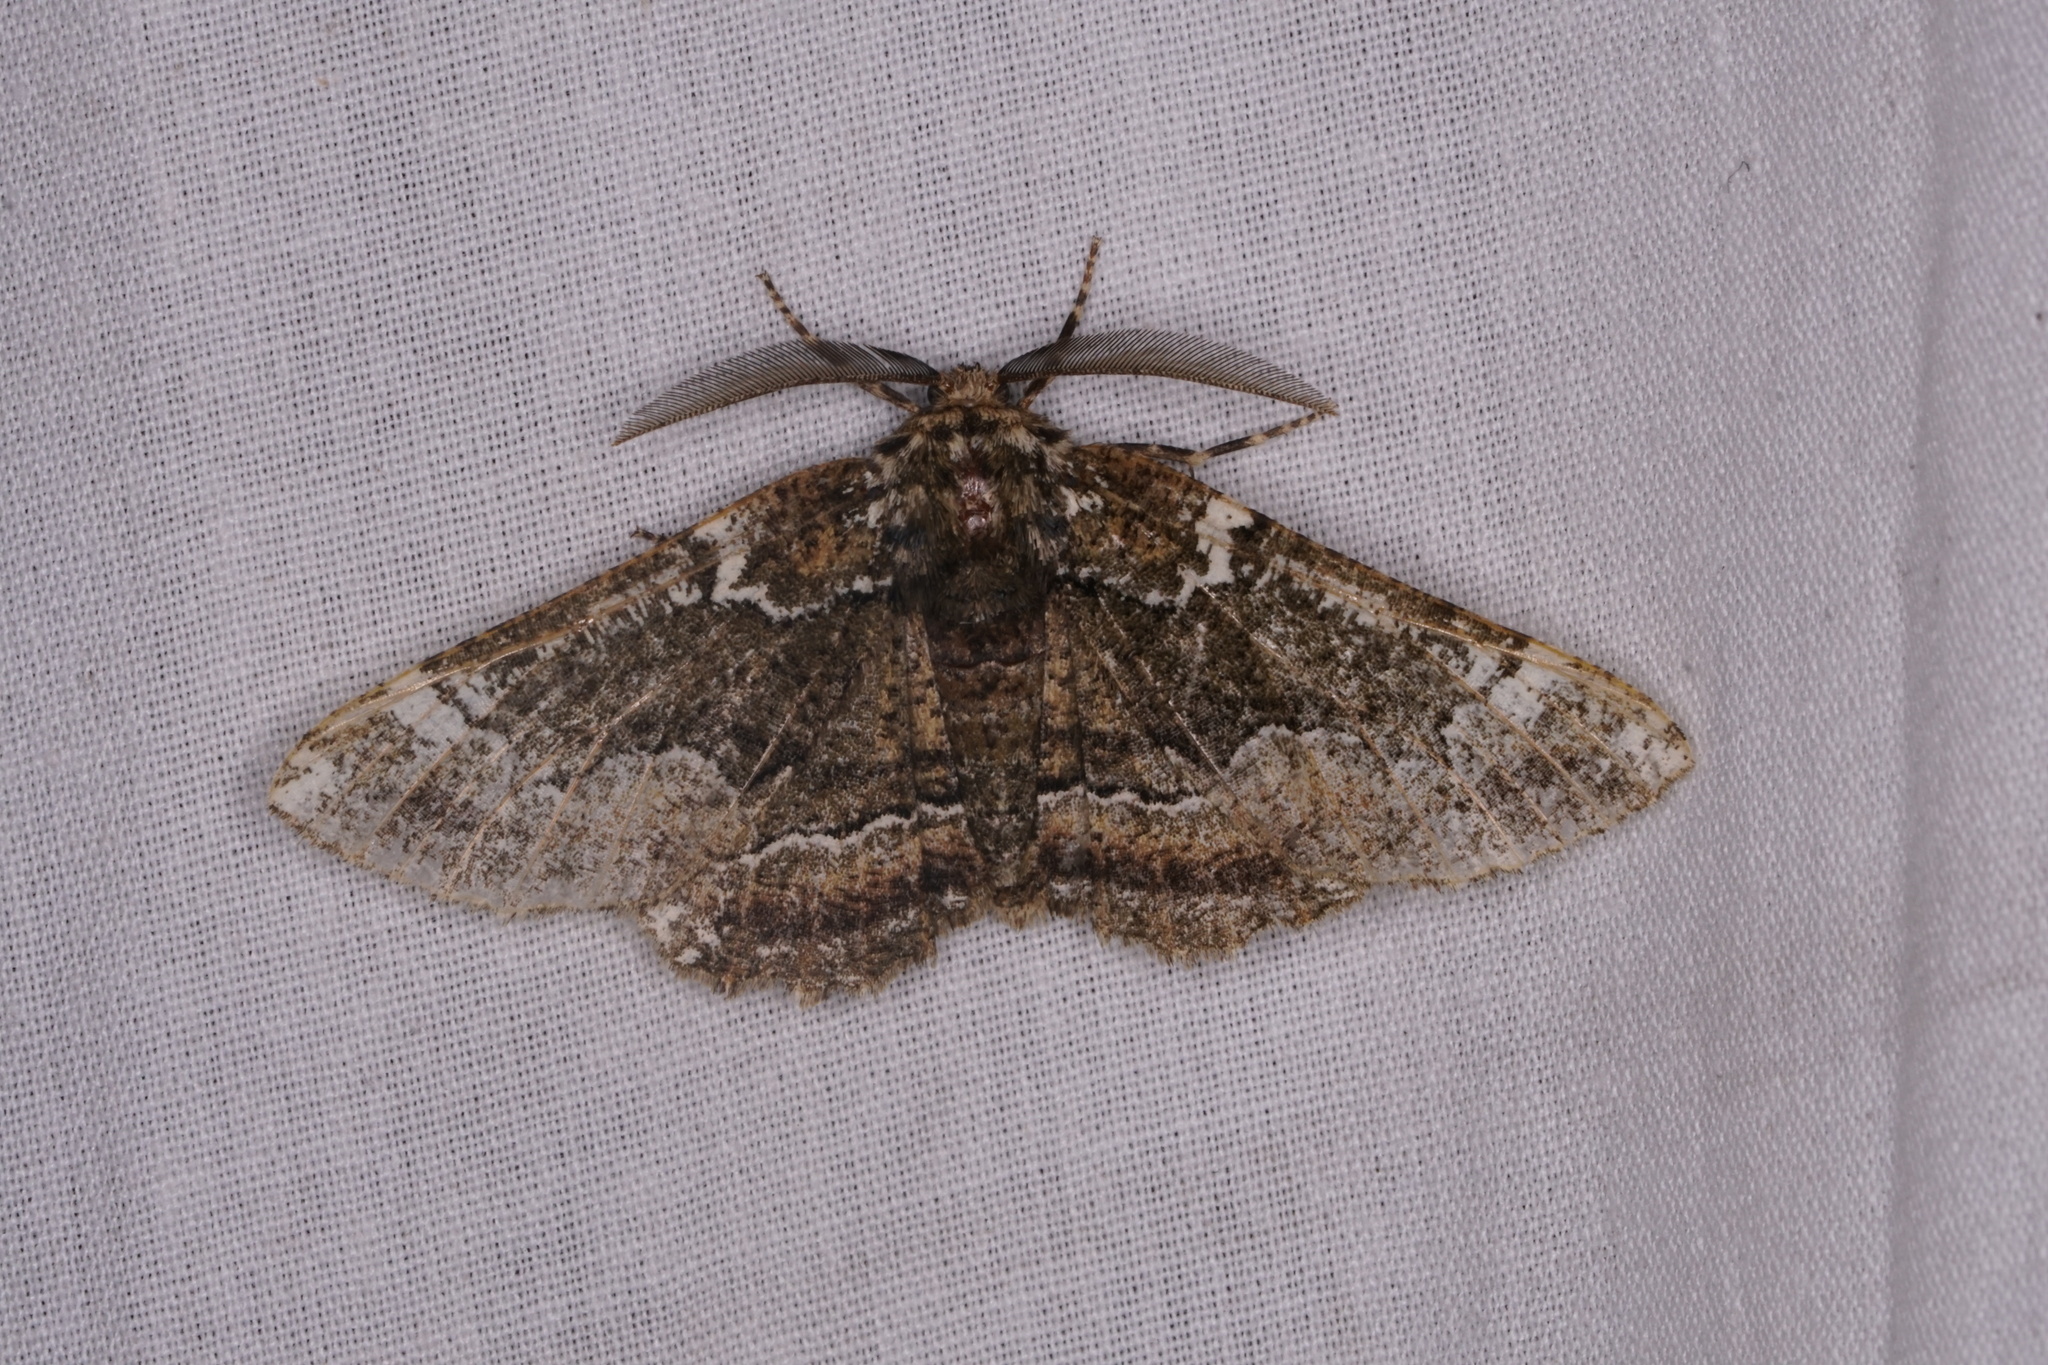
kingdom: Animalia
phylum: Arthropoda
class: Insecta
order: Lepidoptera
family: Geometridae
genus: Phaeoura
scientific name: Phaeoura quernaria
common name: Oak beauty
